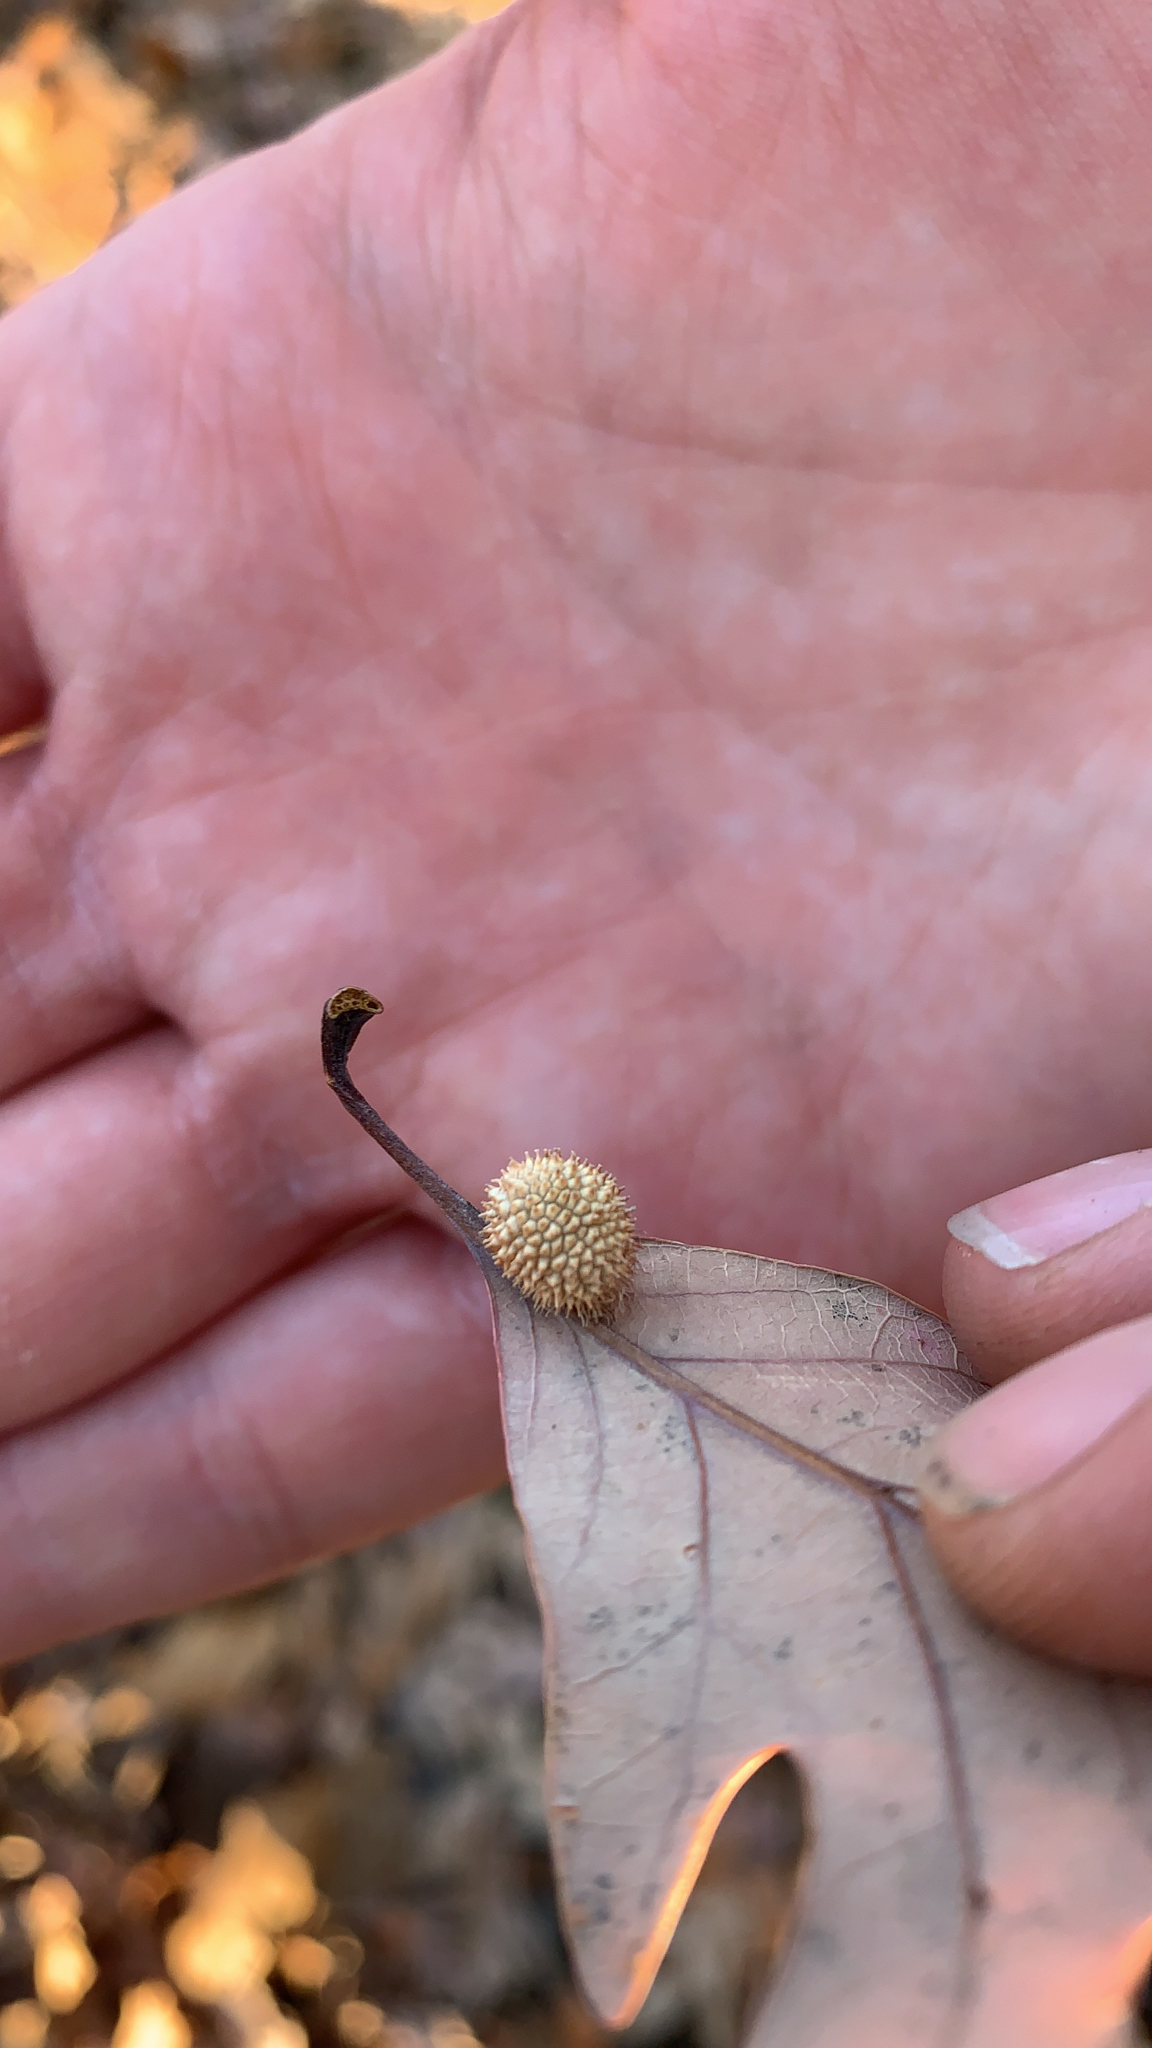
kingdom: Animalia
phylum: Arthropoda
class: Insecta
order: Hymenoptera
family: Cynipidae
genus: Acraspis
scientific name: Acraspis erinacei
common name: Hedgehog gall wasp
